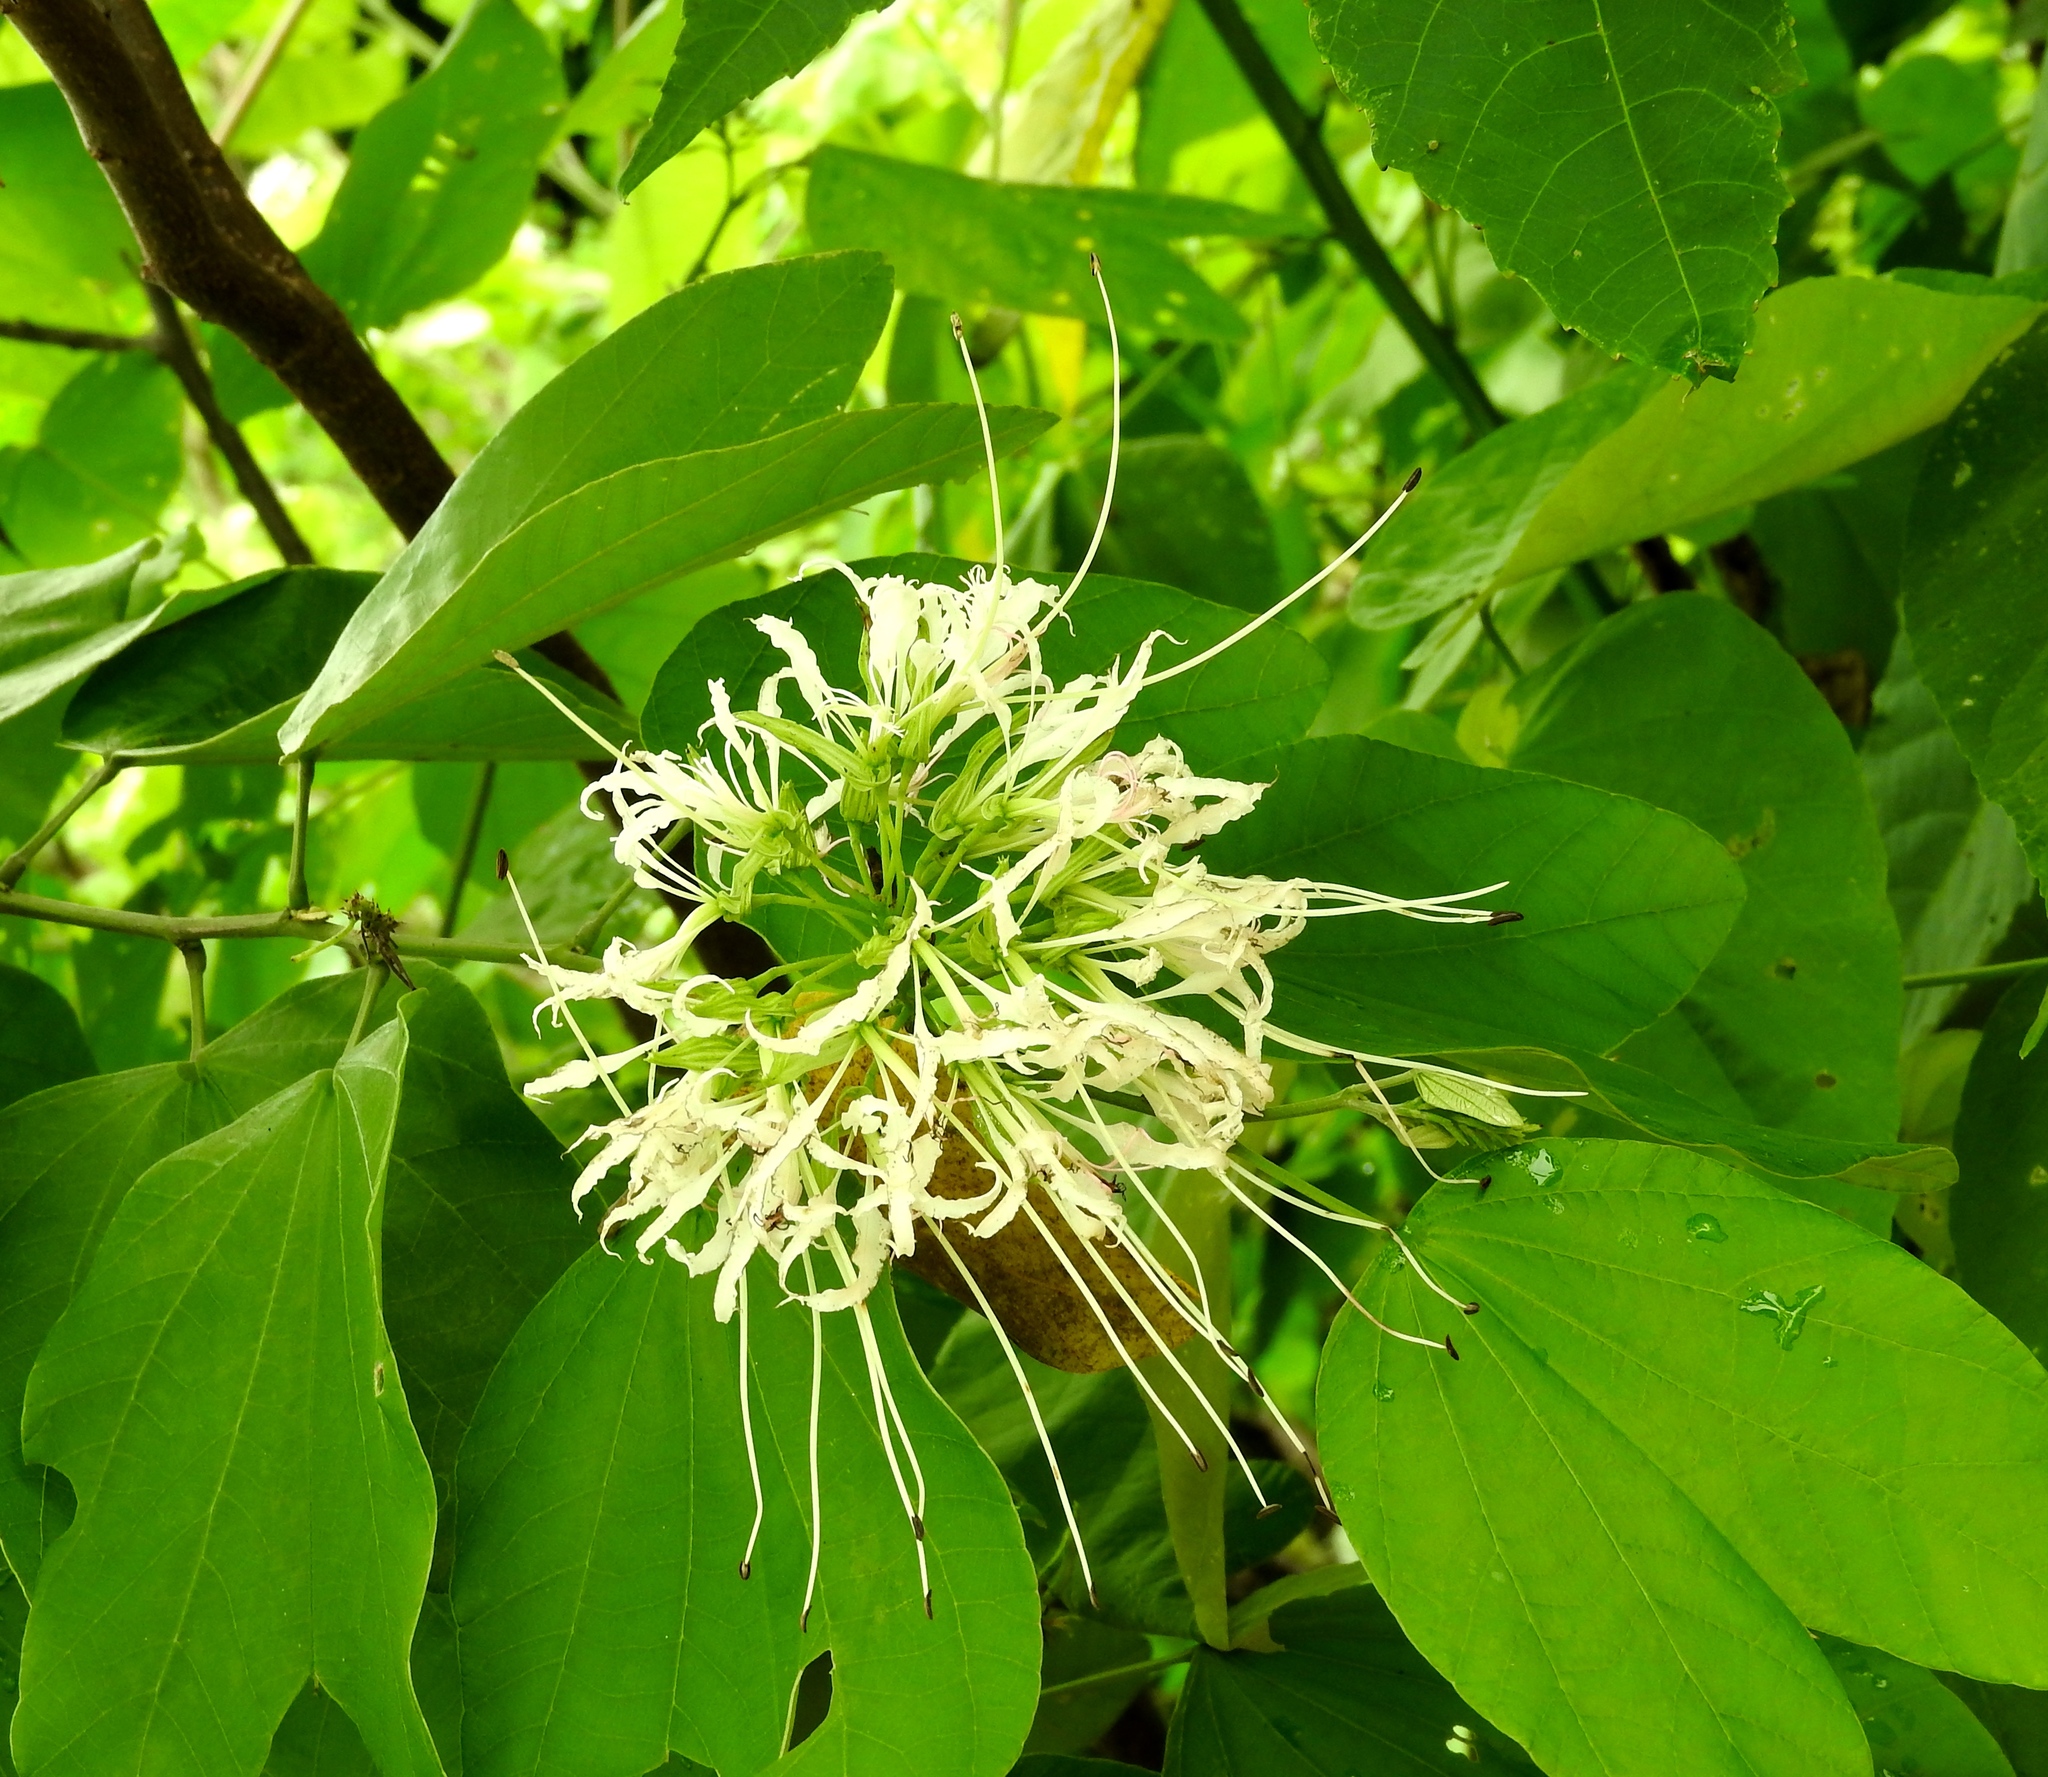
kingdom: Plantae
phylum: Tracheophyta
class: Magnoliopsida
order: Fabales
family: Fabaceae
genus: Bauhinia
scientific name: Bauhinia divaricata
